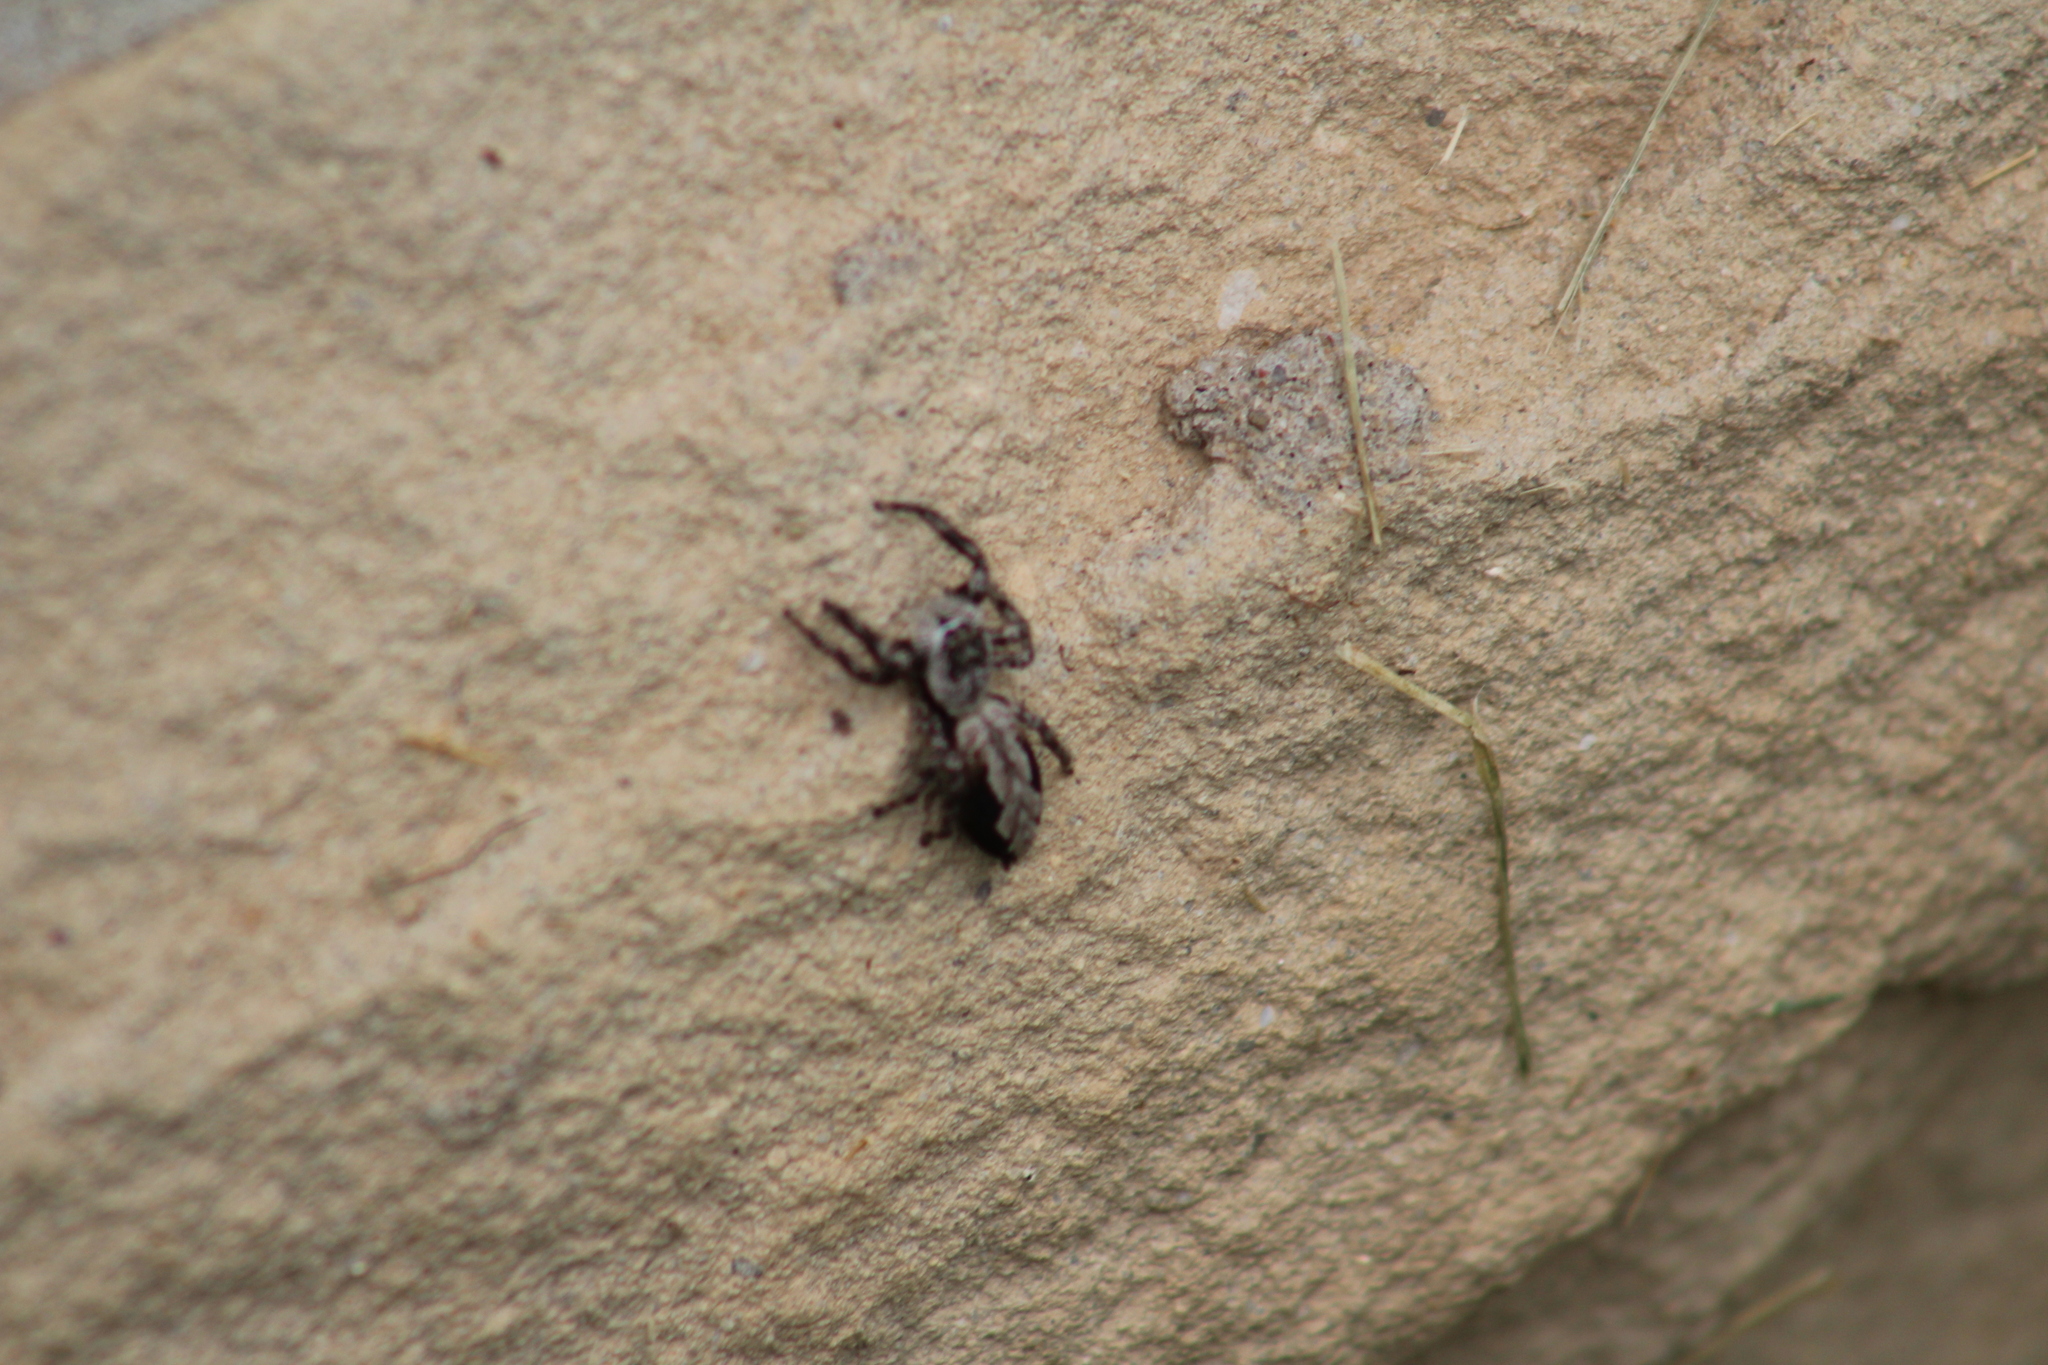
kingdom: Animalia
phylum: Arthropoda
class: Arachnida
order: Araneae
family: Salticidae
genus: Platycryptus
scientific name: Platycryptus undatus
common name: Tan jumping spider
